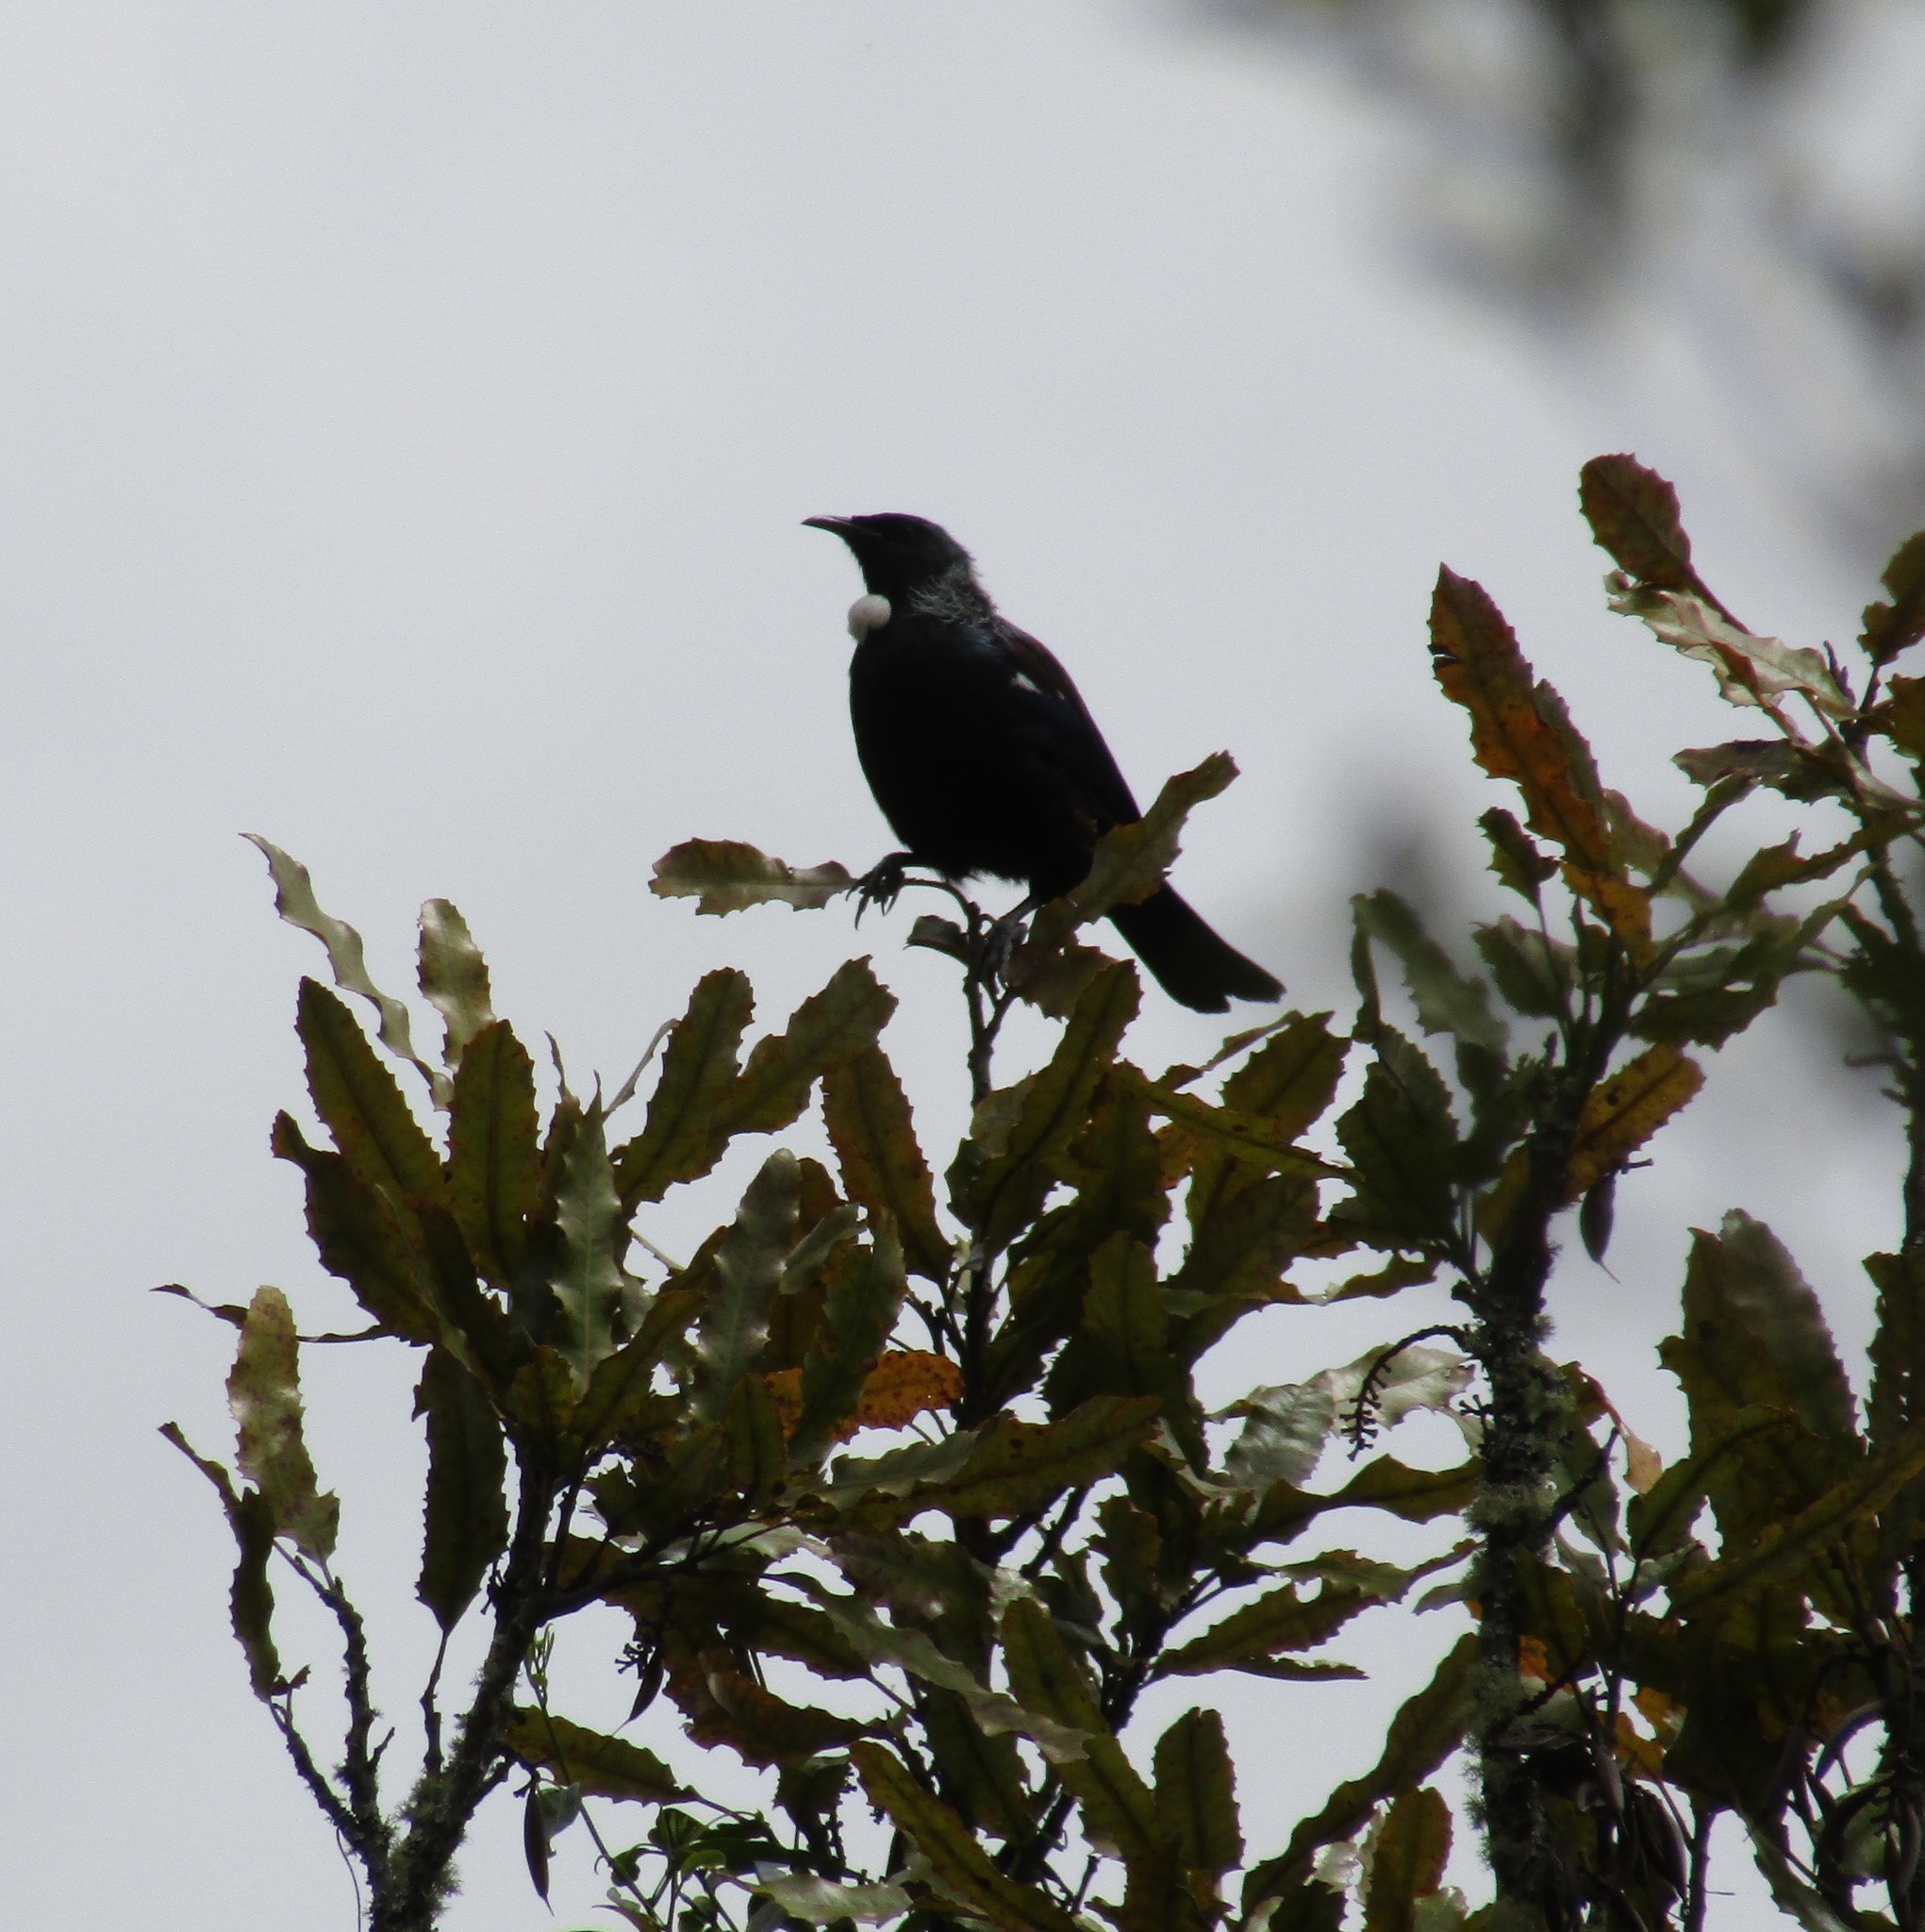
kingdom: Animalia
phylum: Chordata
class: Aves
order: Passeriformes
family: Meliphagidae
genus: Prosthemadera
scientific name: Prosthemadera novaeseelandiae
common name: Tui
